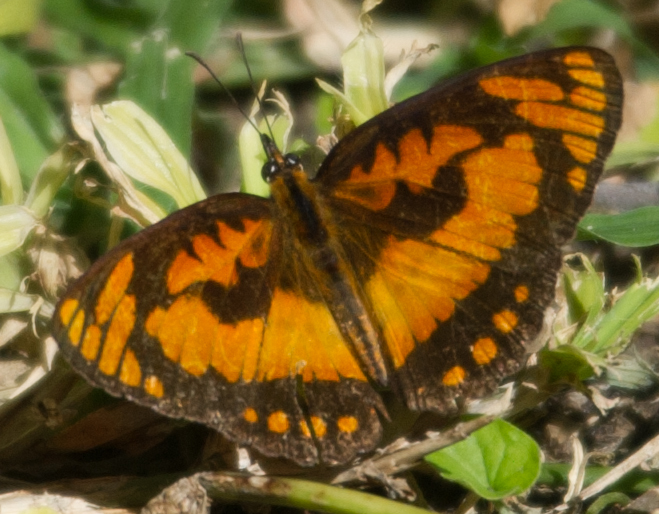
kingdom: Animalia
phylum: Arthropoda
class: Insecta
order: Lepidoptera
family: Nymphalidae
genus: Byblia
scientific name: Byblia acheloia
